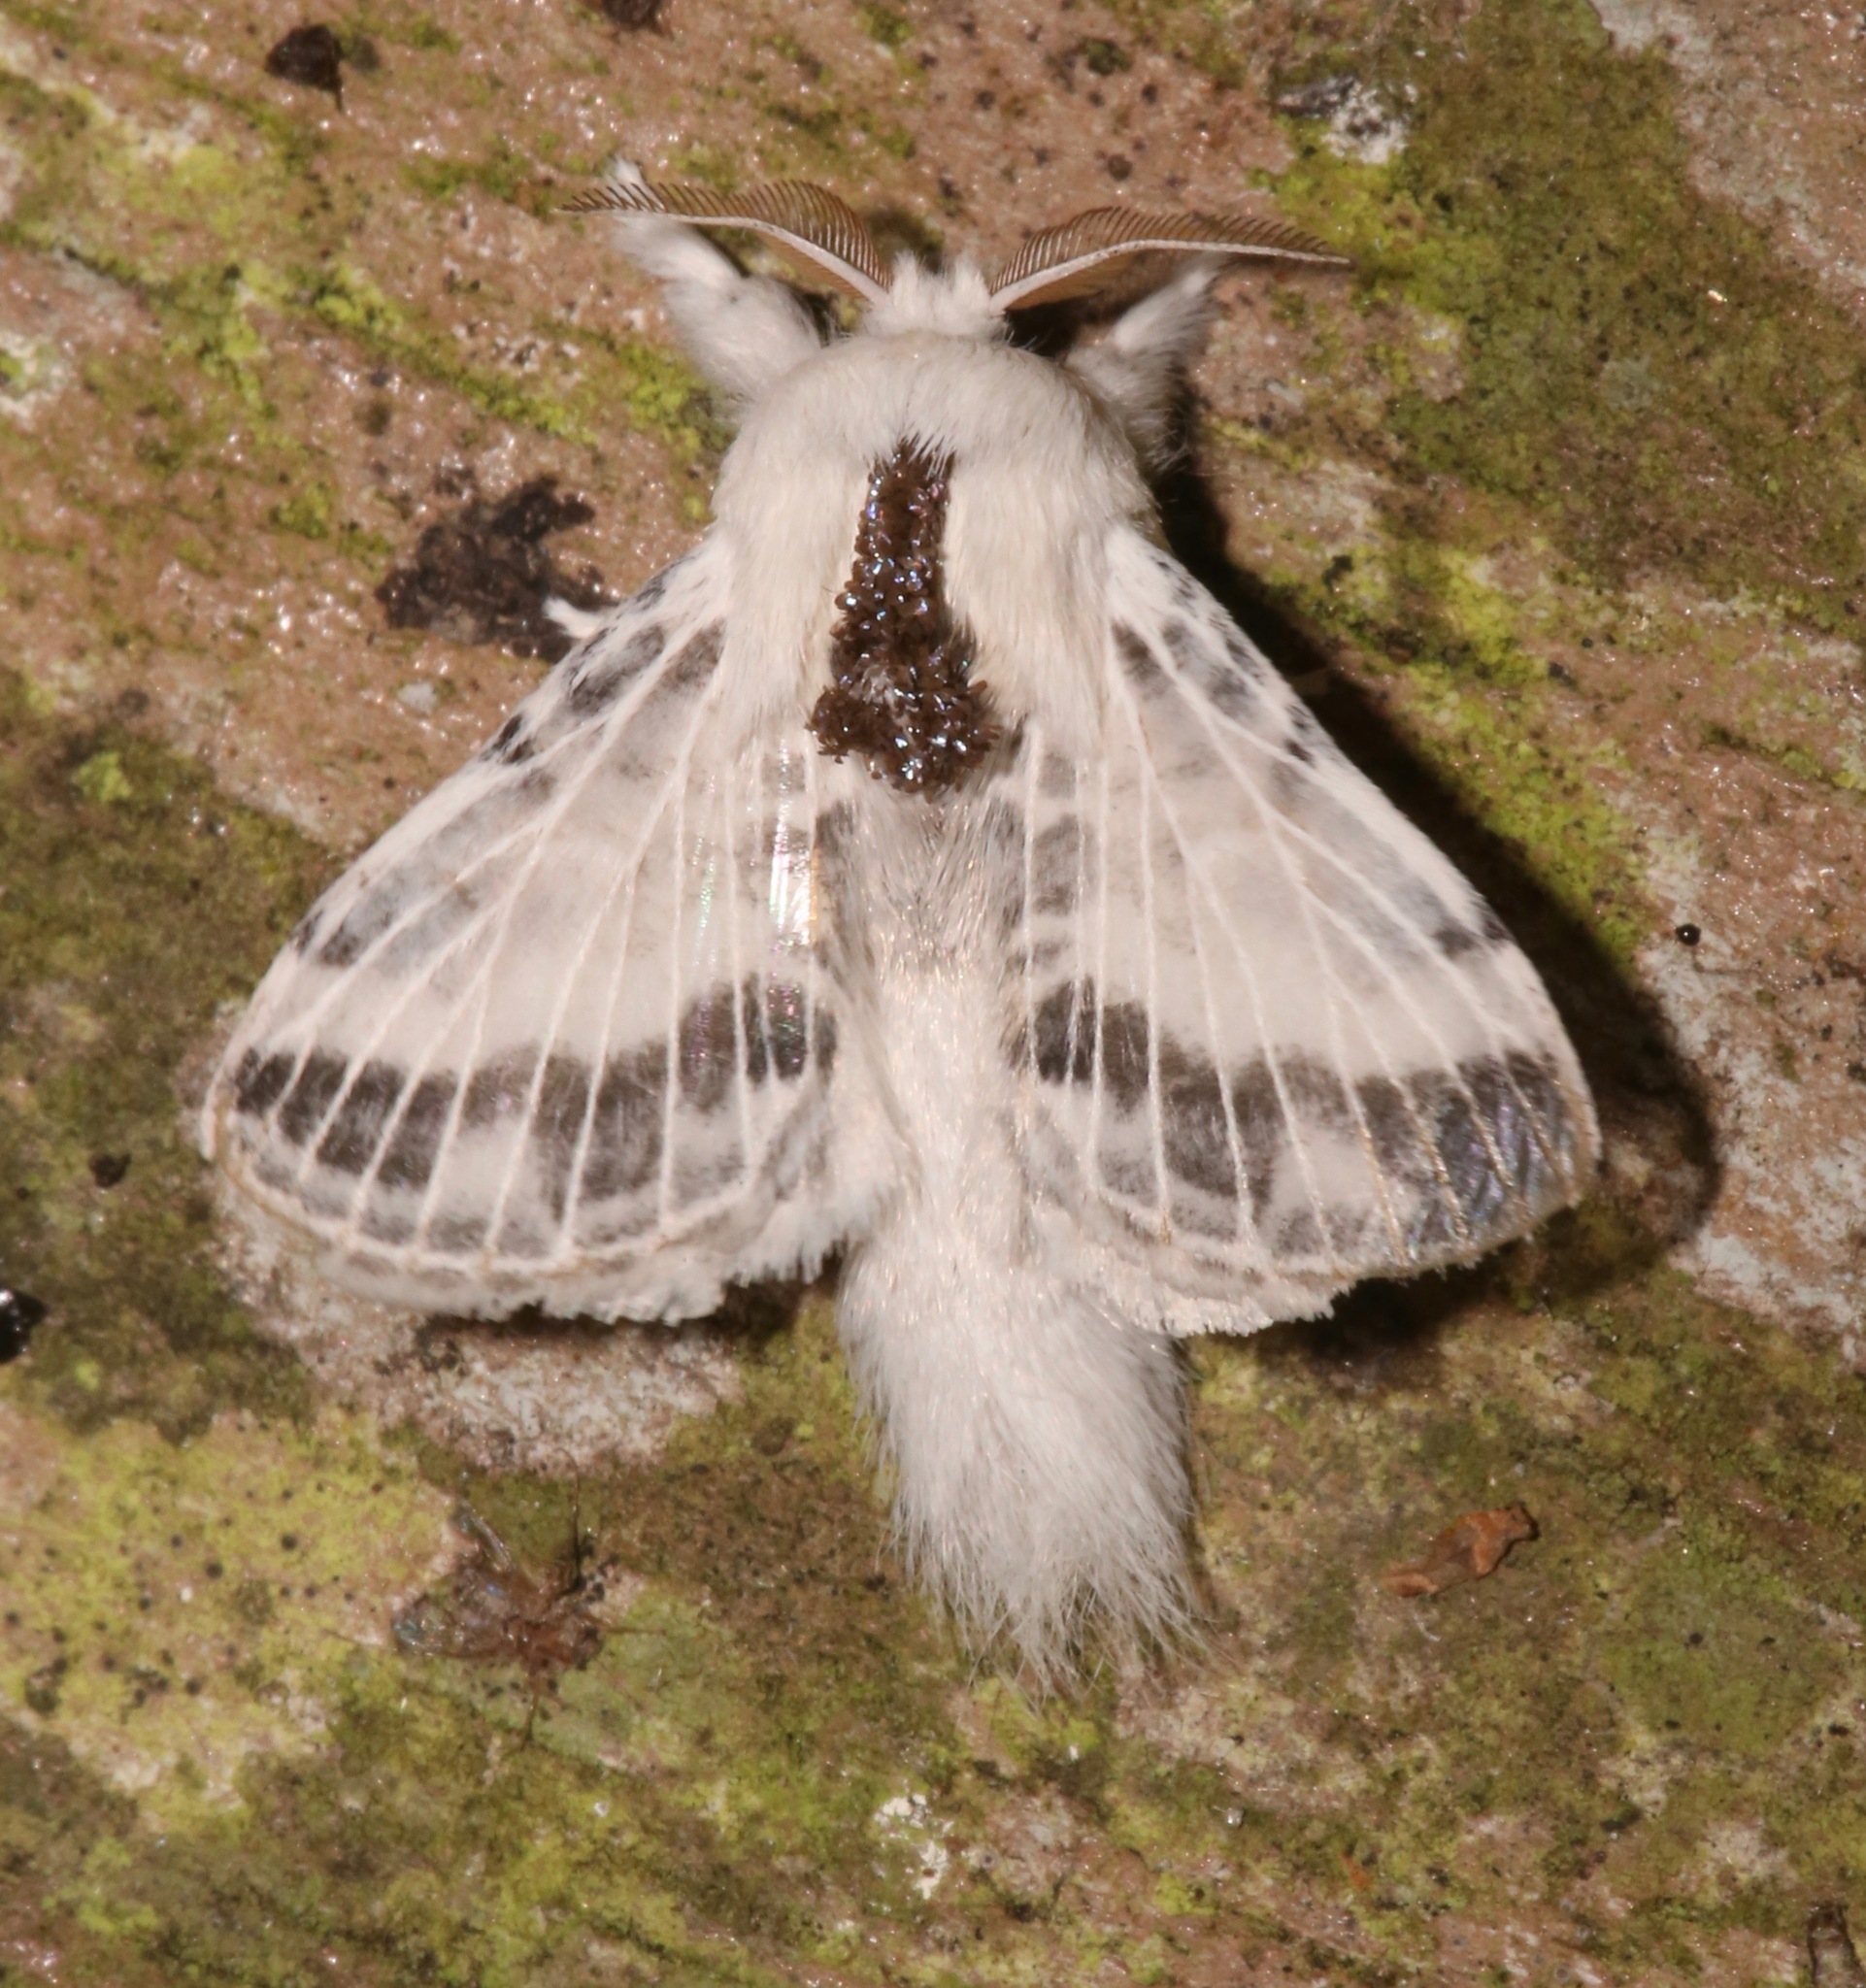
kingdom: Animalia
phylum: Arthropoda
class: Insecta
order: Lepidoptera
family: Lasiocampidae
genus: Tolype
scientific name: Tolype minta
